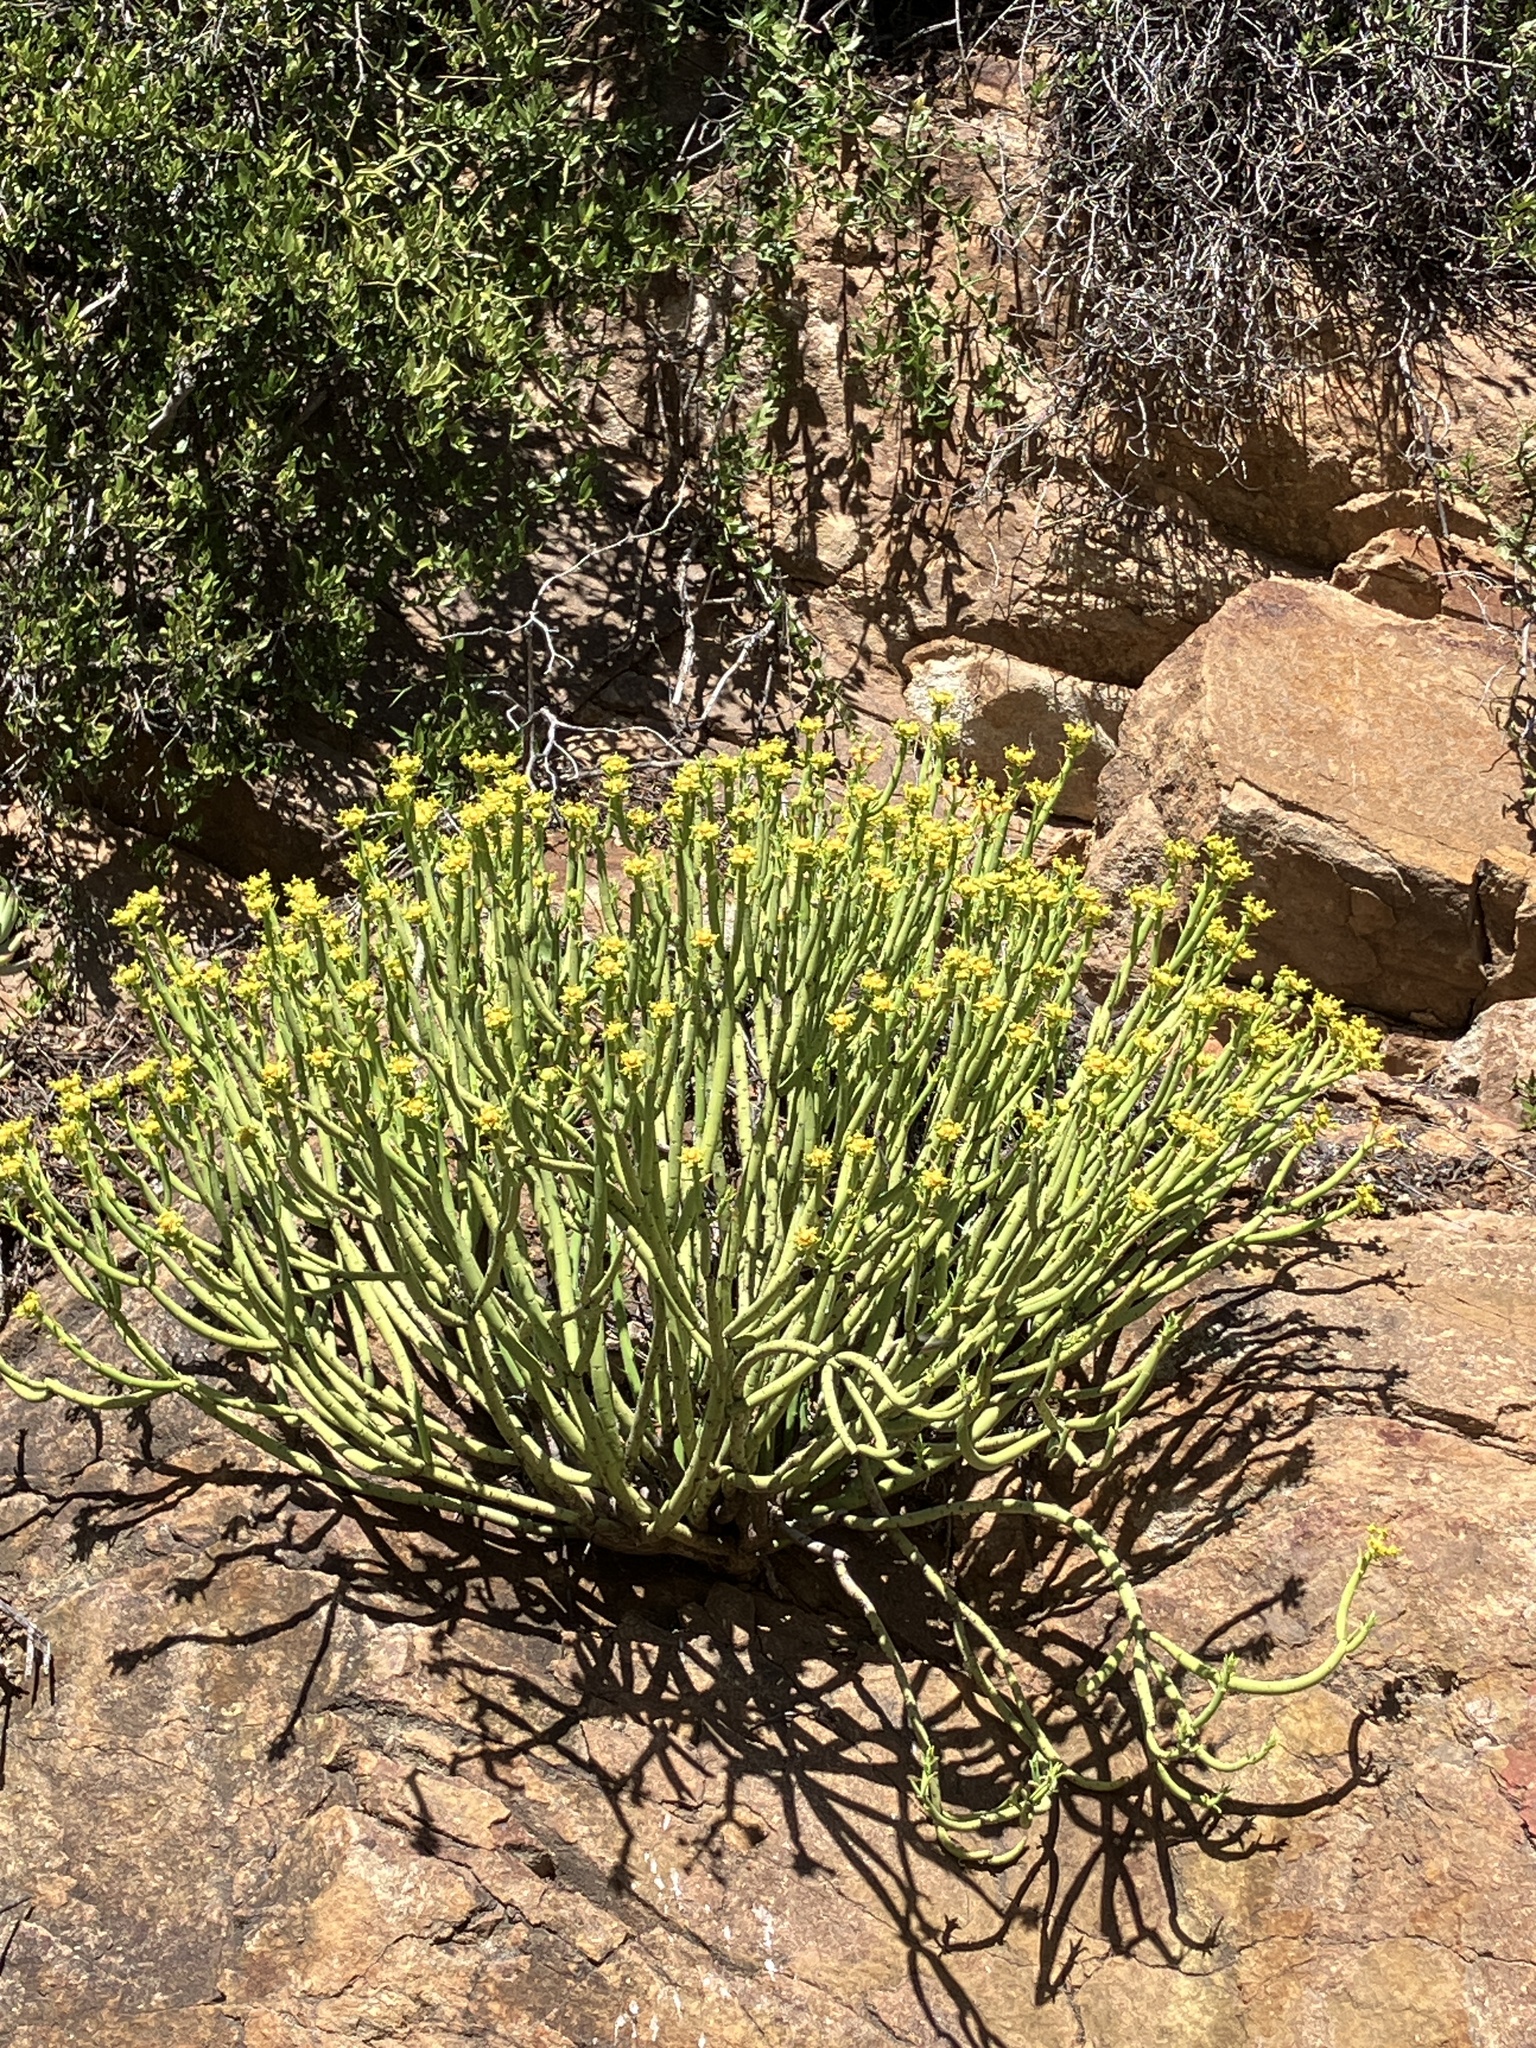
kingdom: Plantae
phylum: Tracheophyta
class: Magnoliopsida
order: Malpighiales
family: Euphorbiaceae
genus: Euphorbia
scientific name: Euphorbia mauritanica
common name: Jackal's-food
